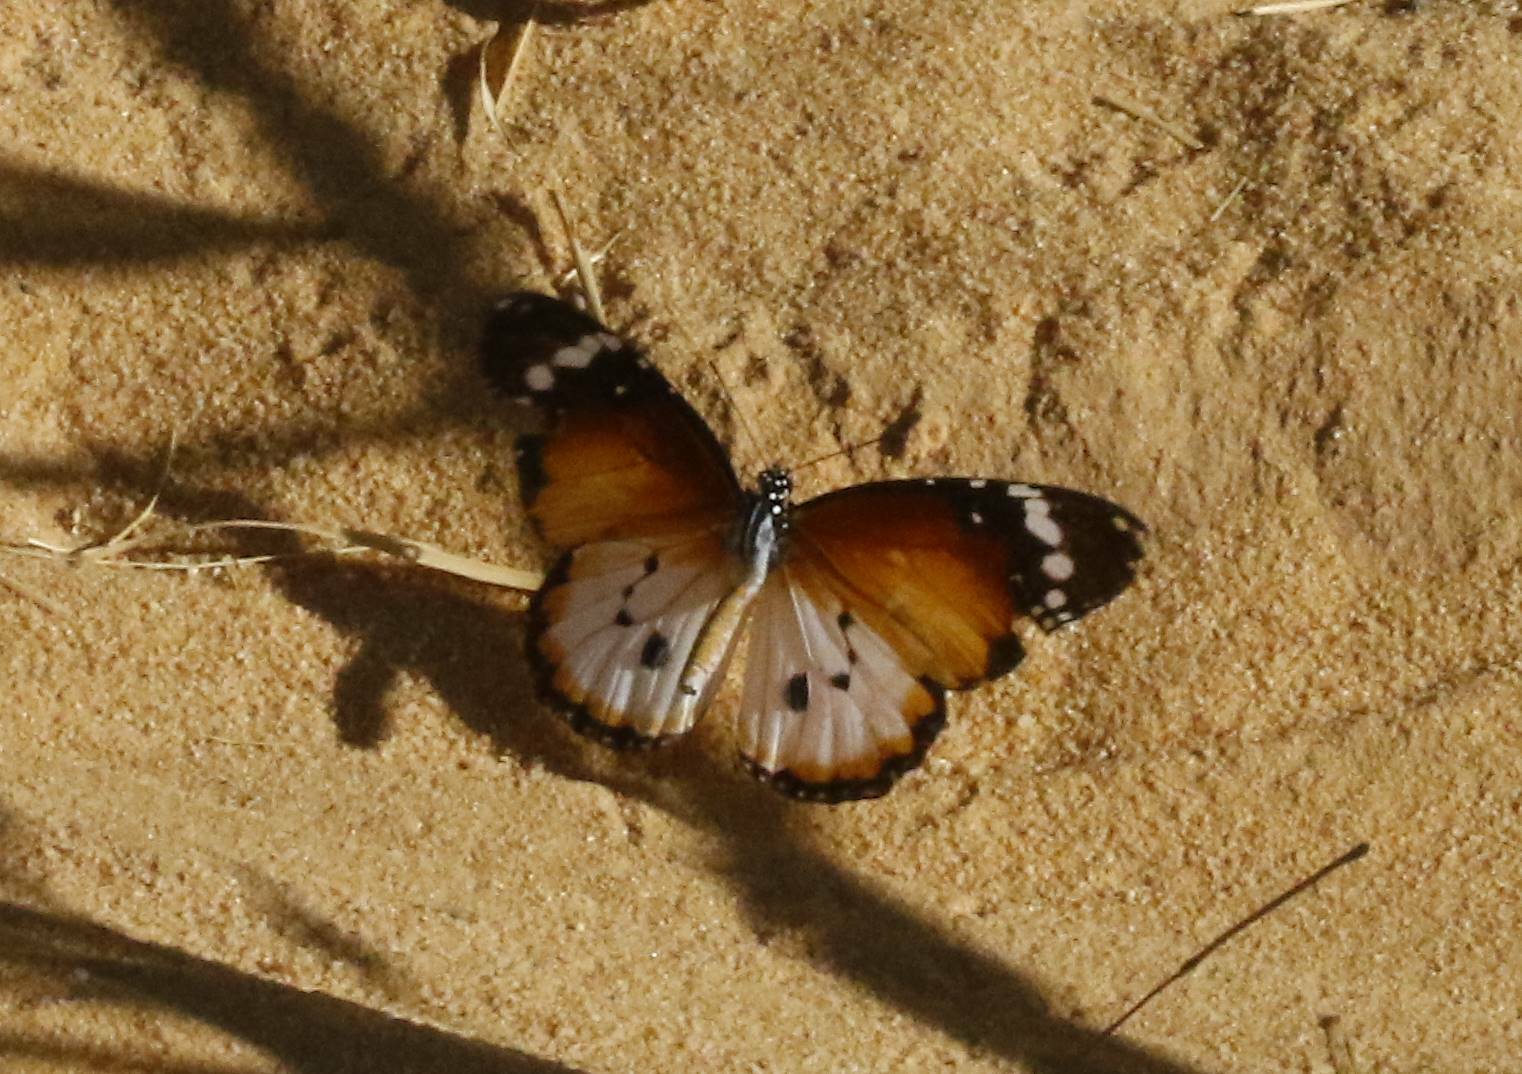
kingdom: Animalia
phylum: Arthropoda
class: Insecta
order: Lepidoptera
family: Nymphalidae
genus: Danaus
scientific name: Danaus chrysippus
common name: Plain tiger
